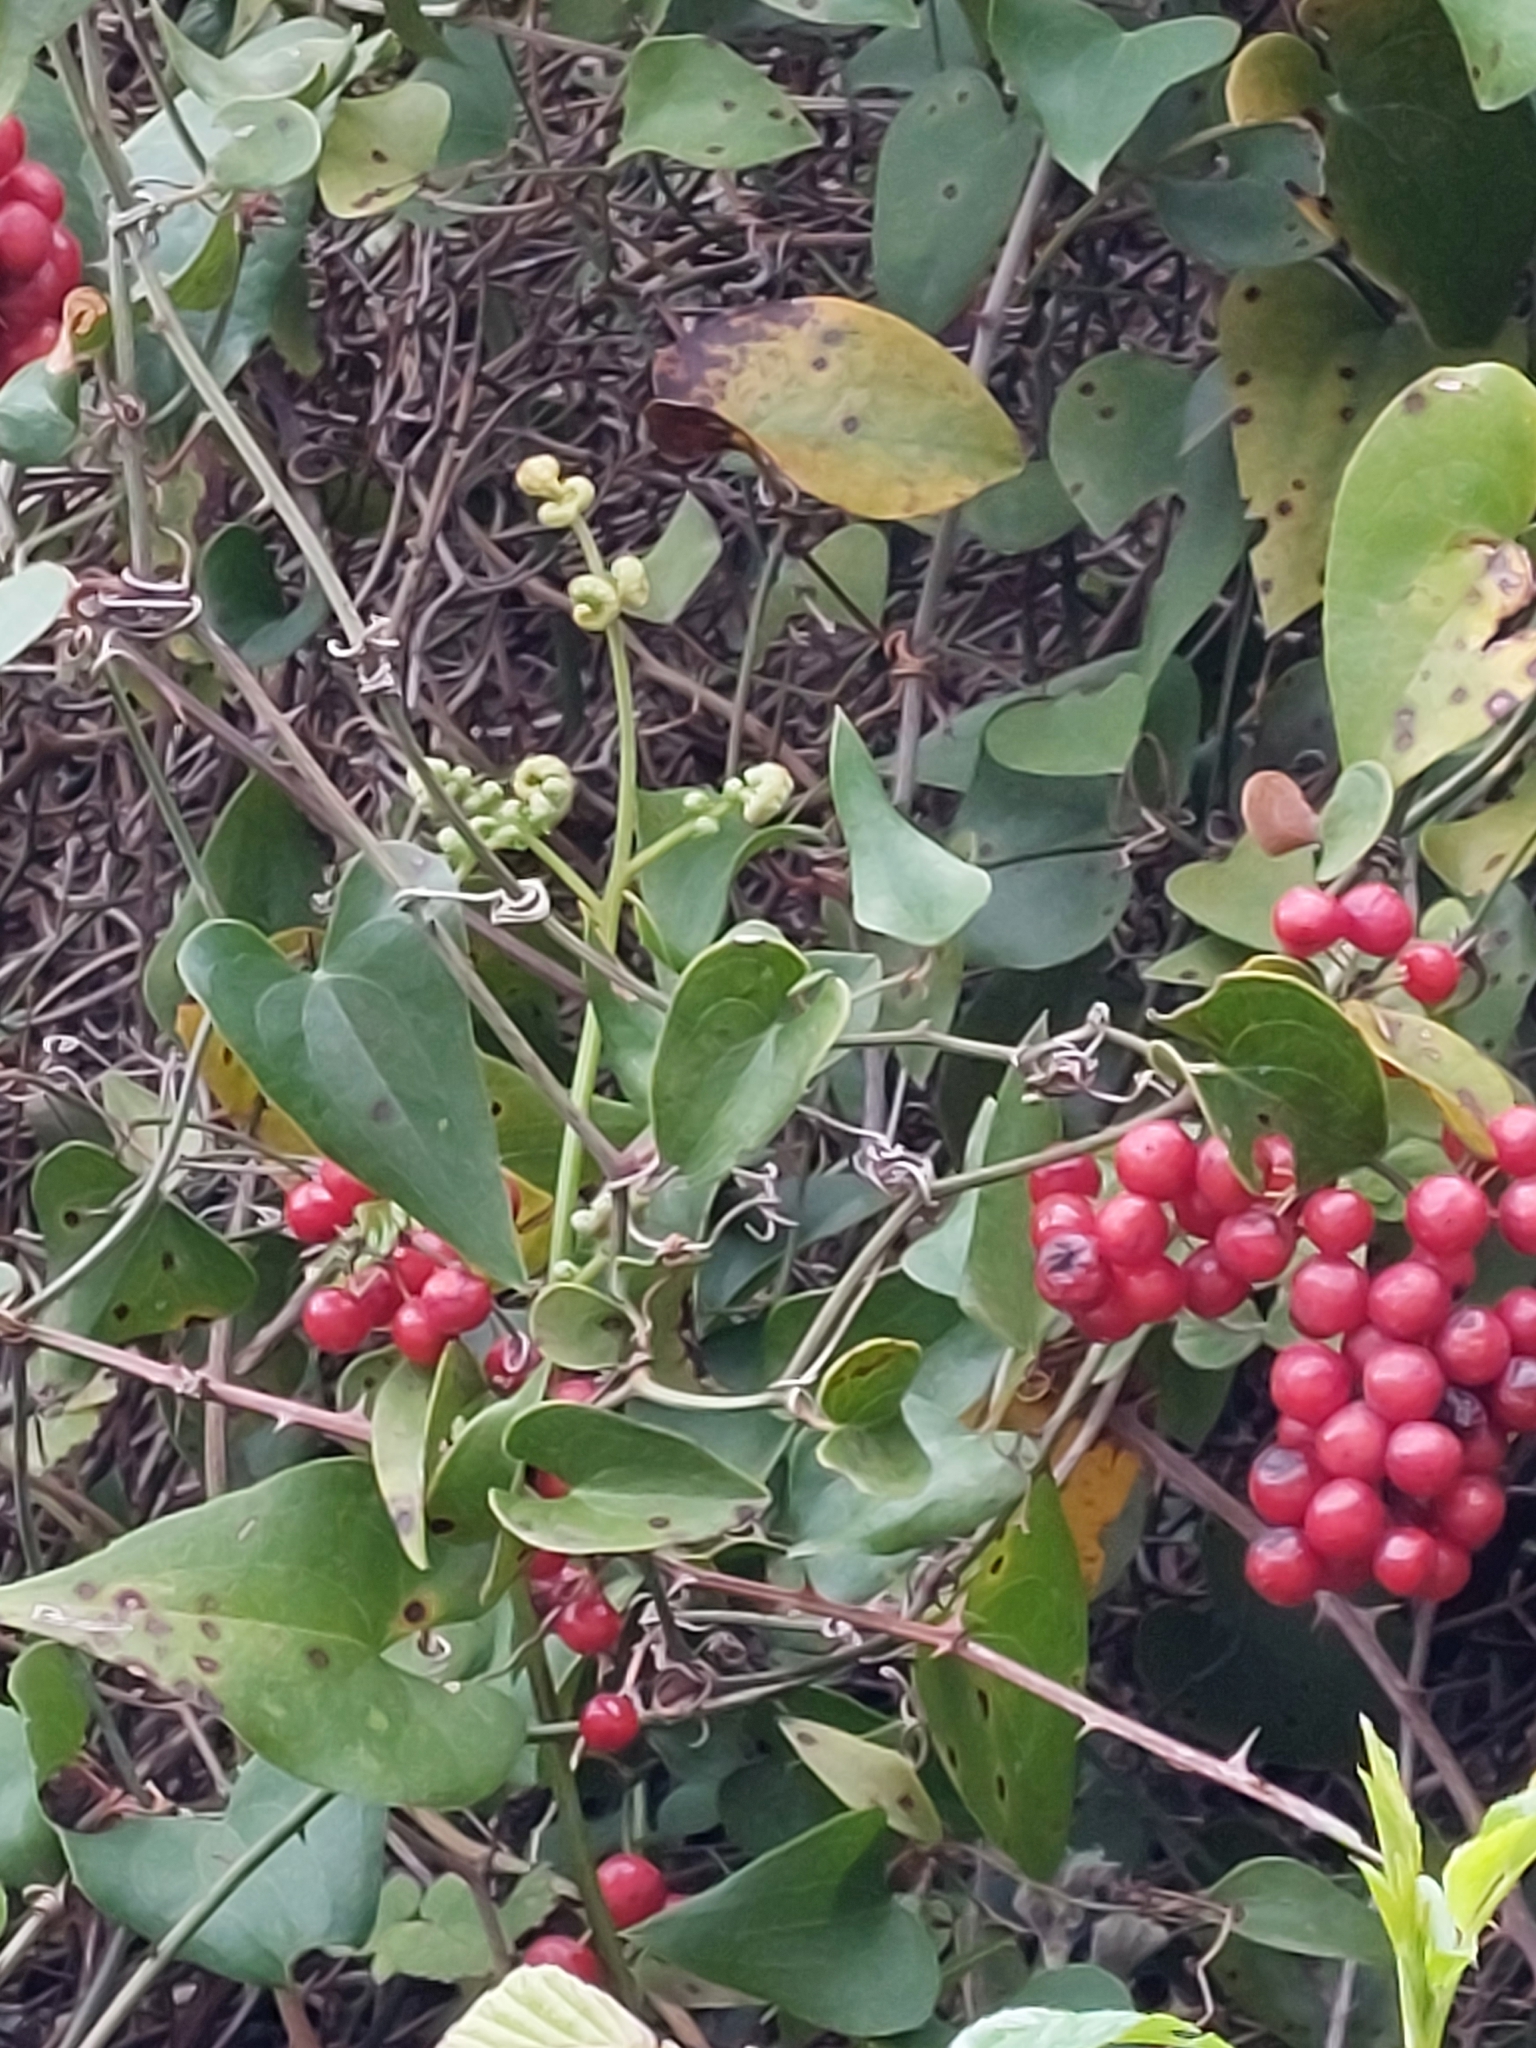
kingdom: Plantae
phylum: Tracheophyta
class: Liliopsida
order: Liliales
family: Smilacaceae
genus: Smilax
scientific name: Smilax aspera
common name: Common smilax
